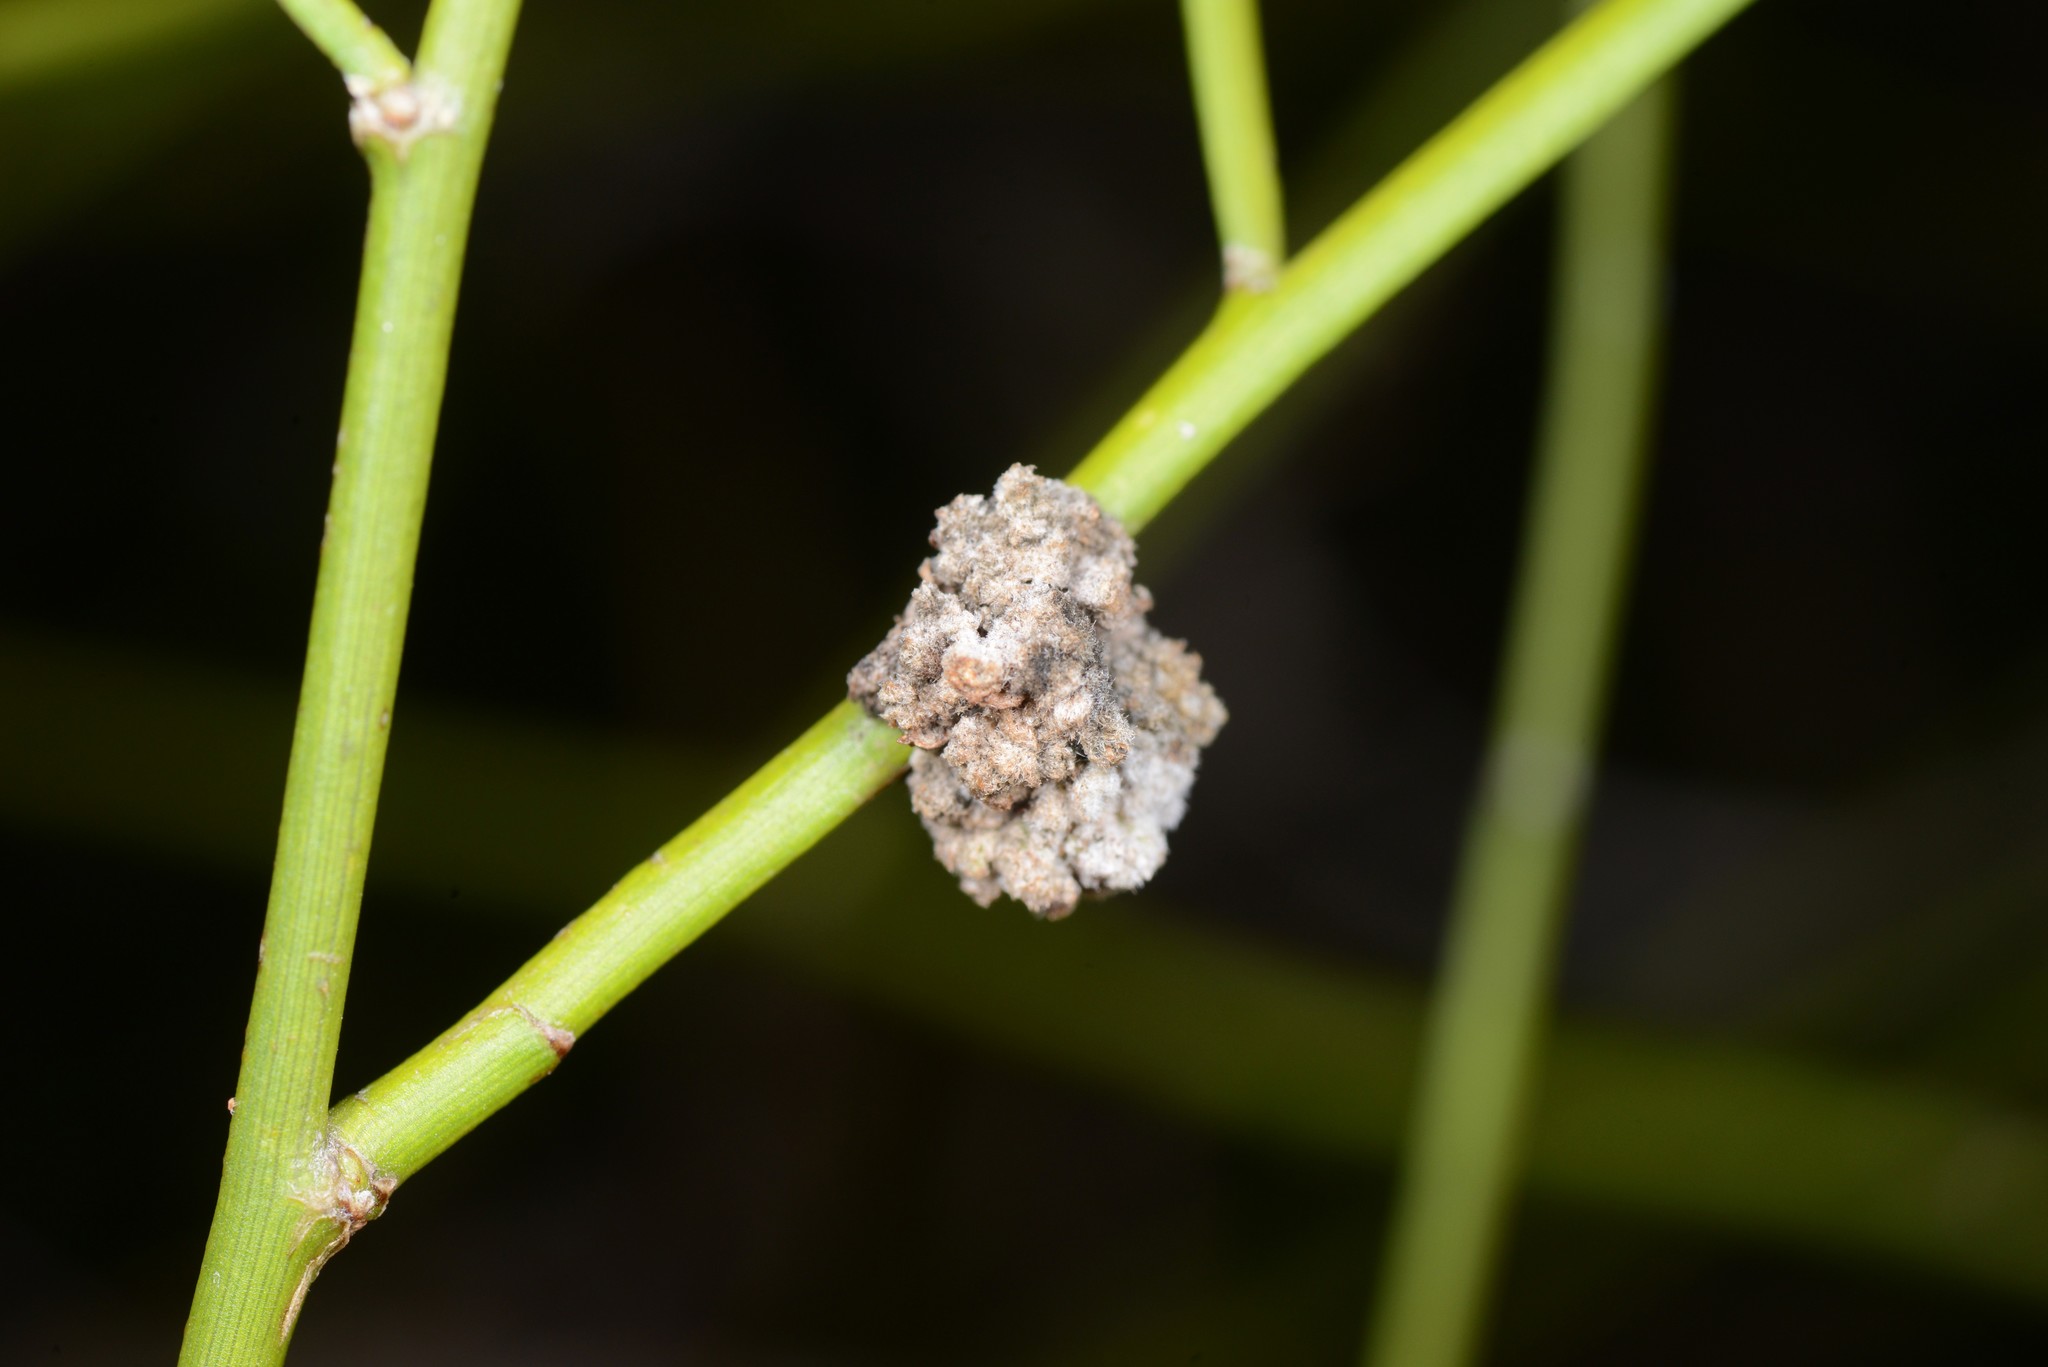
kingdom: Animalia
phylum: Arthropoda
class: Arachnida
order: Trombidiformes
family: Eriophyidae
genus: Aceria
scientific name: Aceria carmichaeliae
